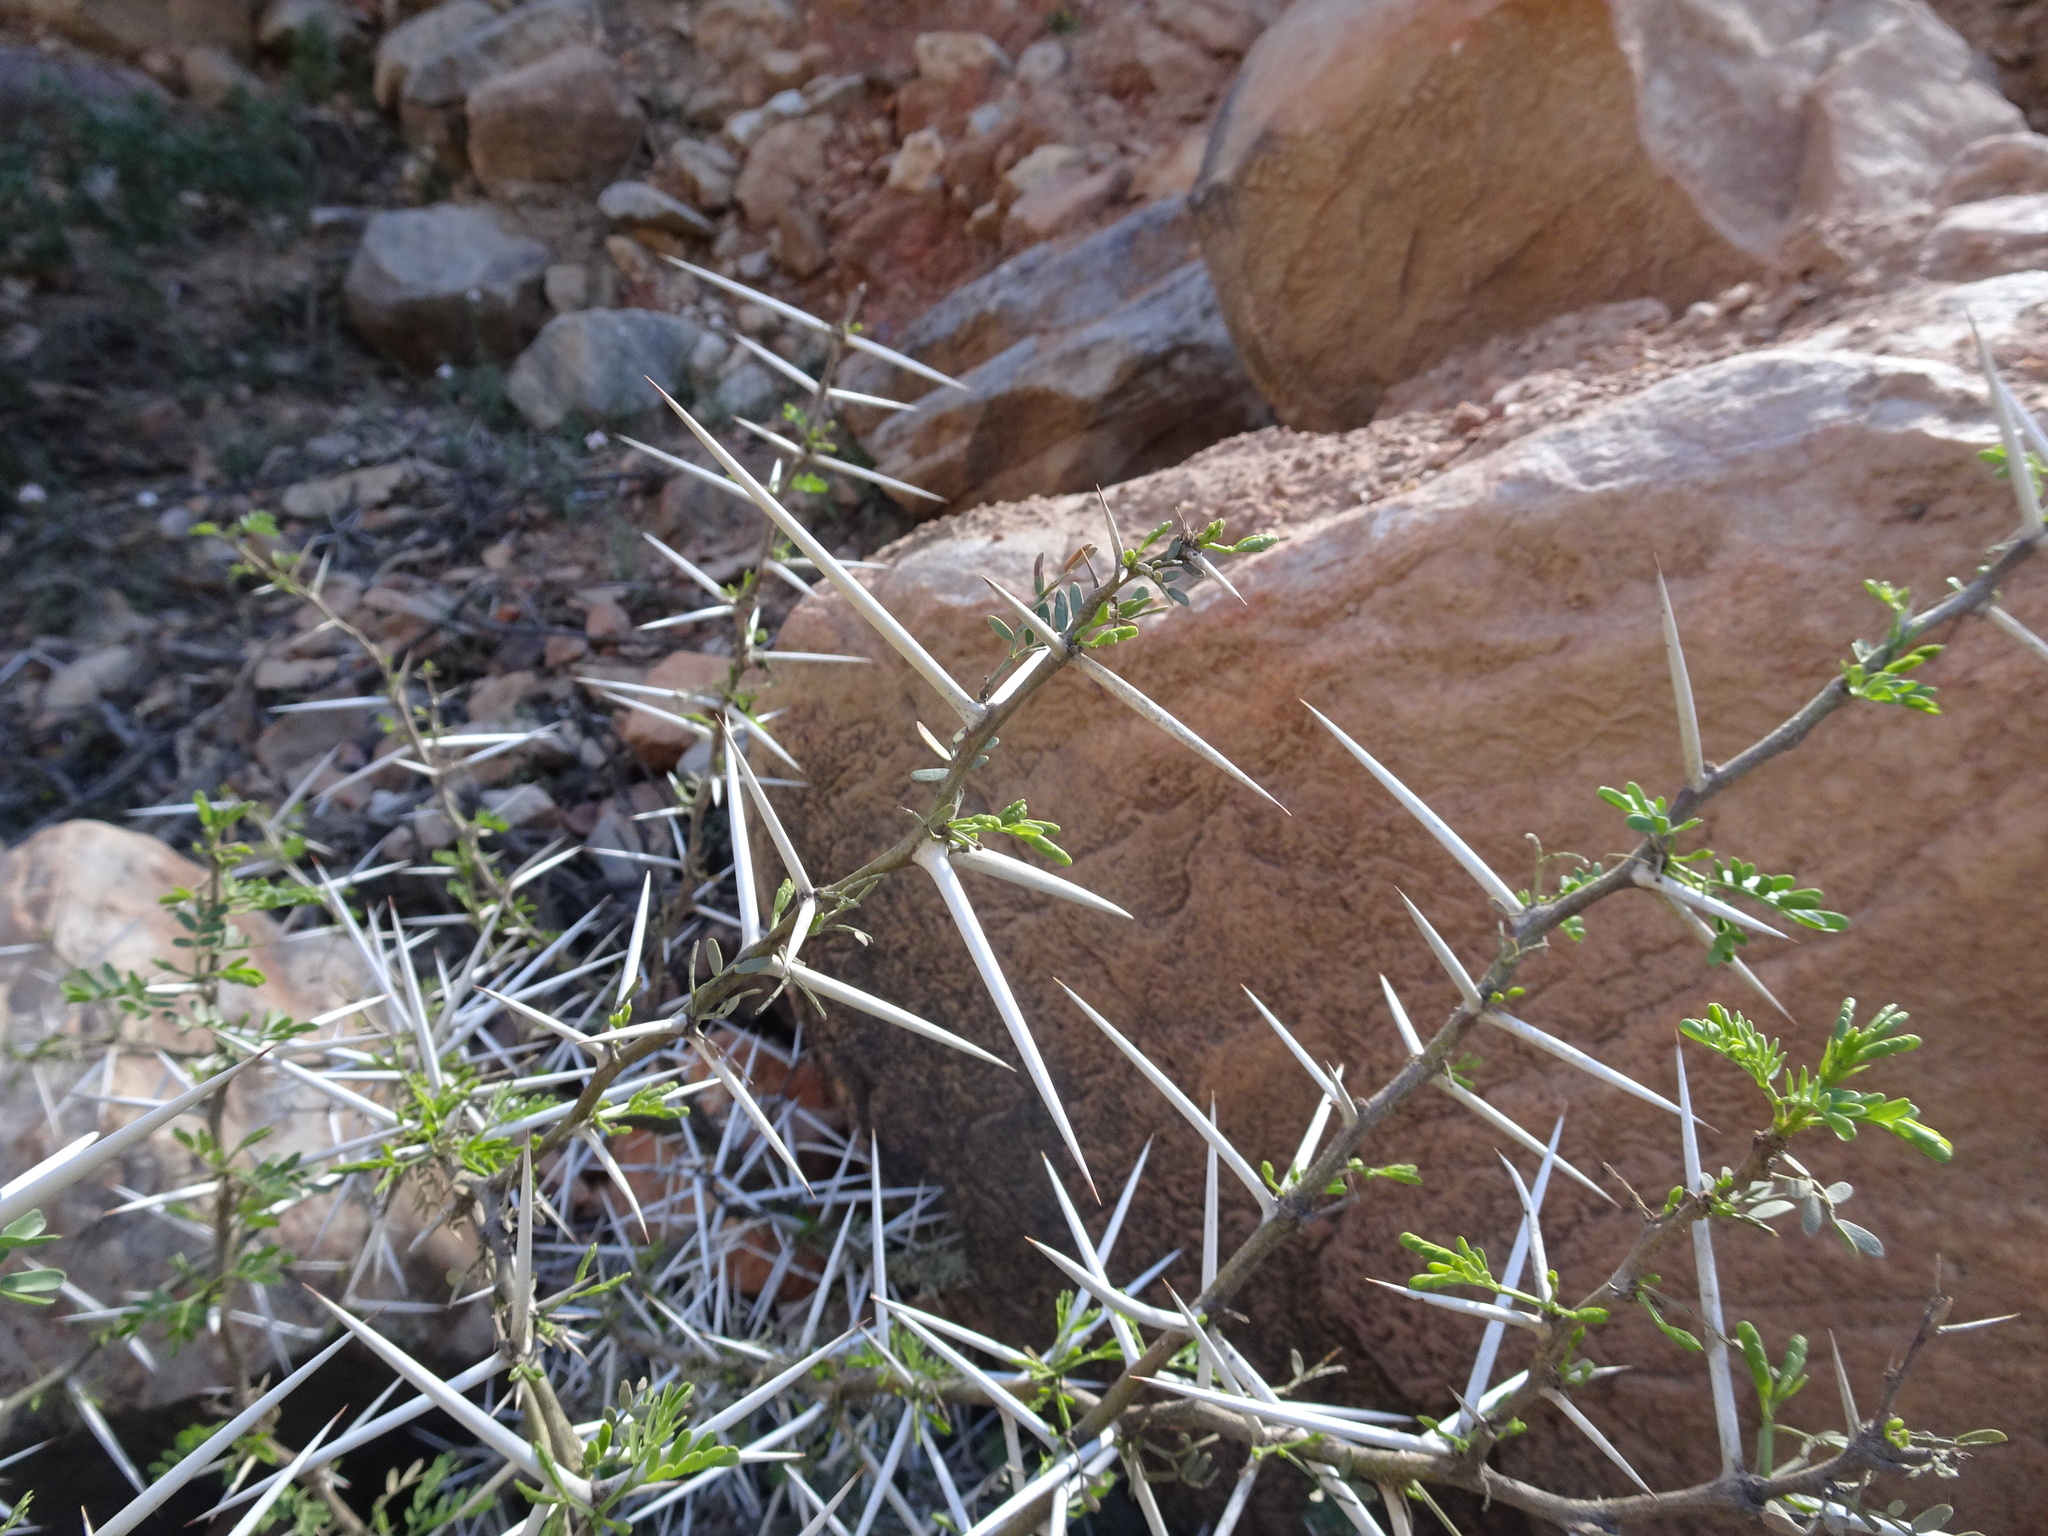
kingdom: Plantae
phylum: Tracheophyta
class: Magnoliopsida
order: Fabales
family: Fabaceae
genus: Vachellia
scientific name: Vachellia karroo
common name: Sweet thorn
